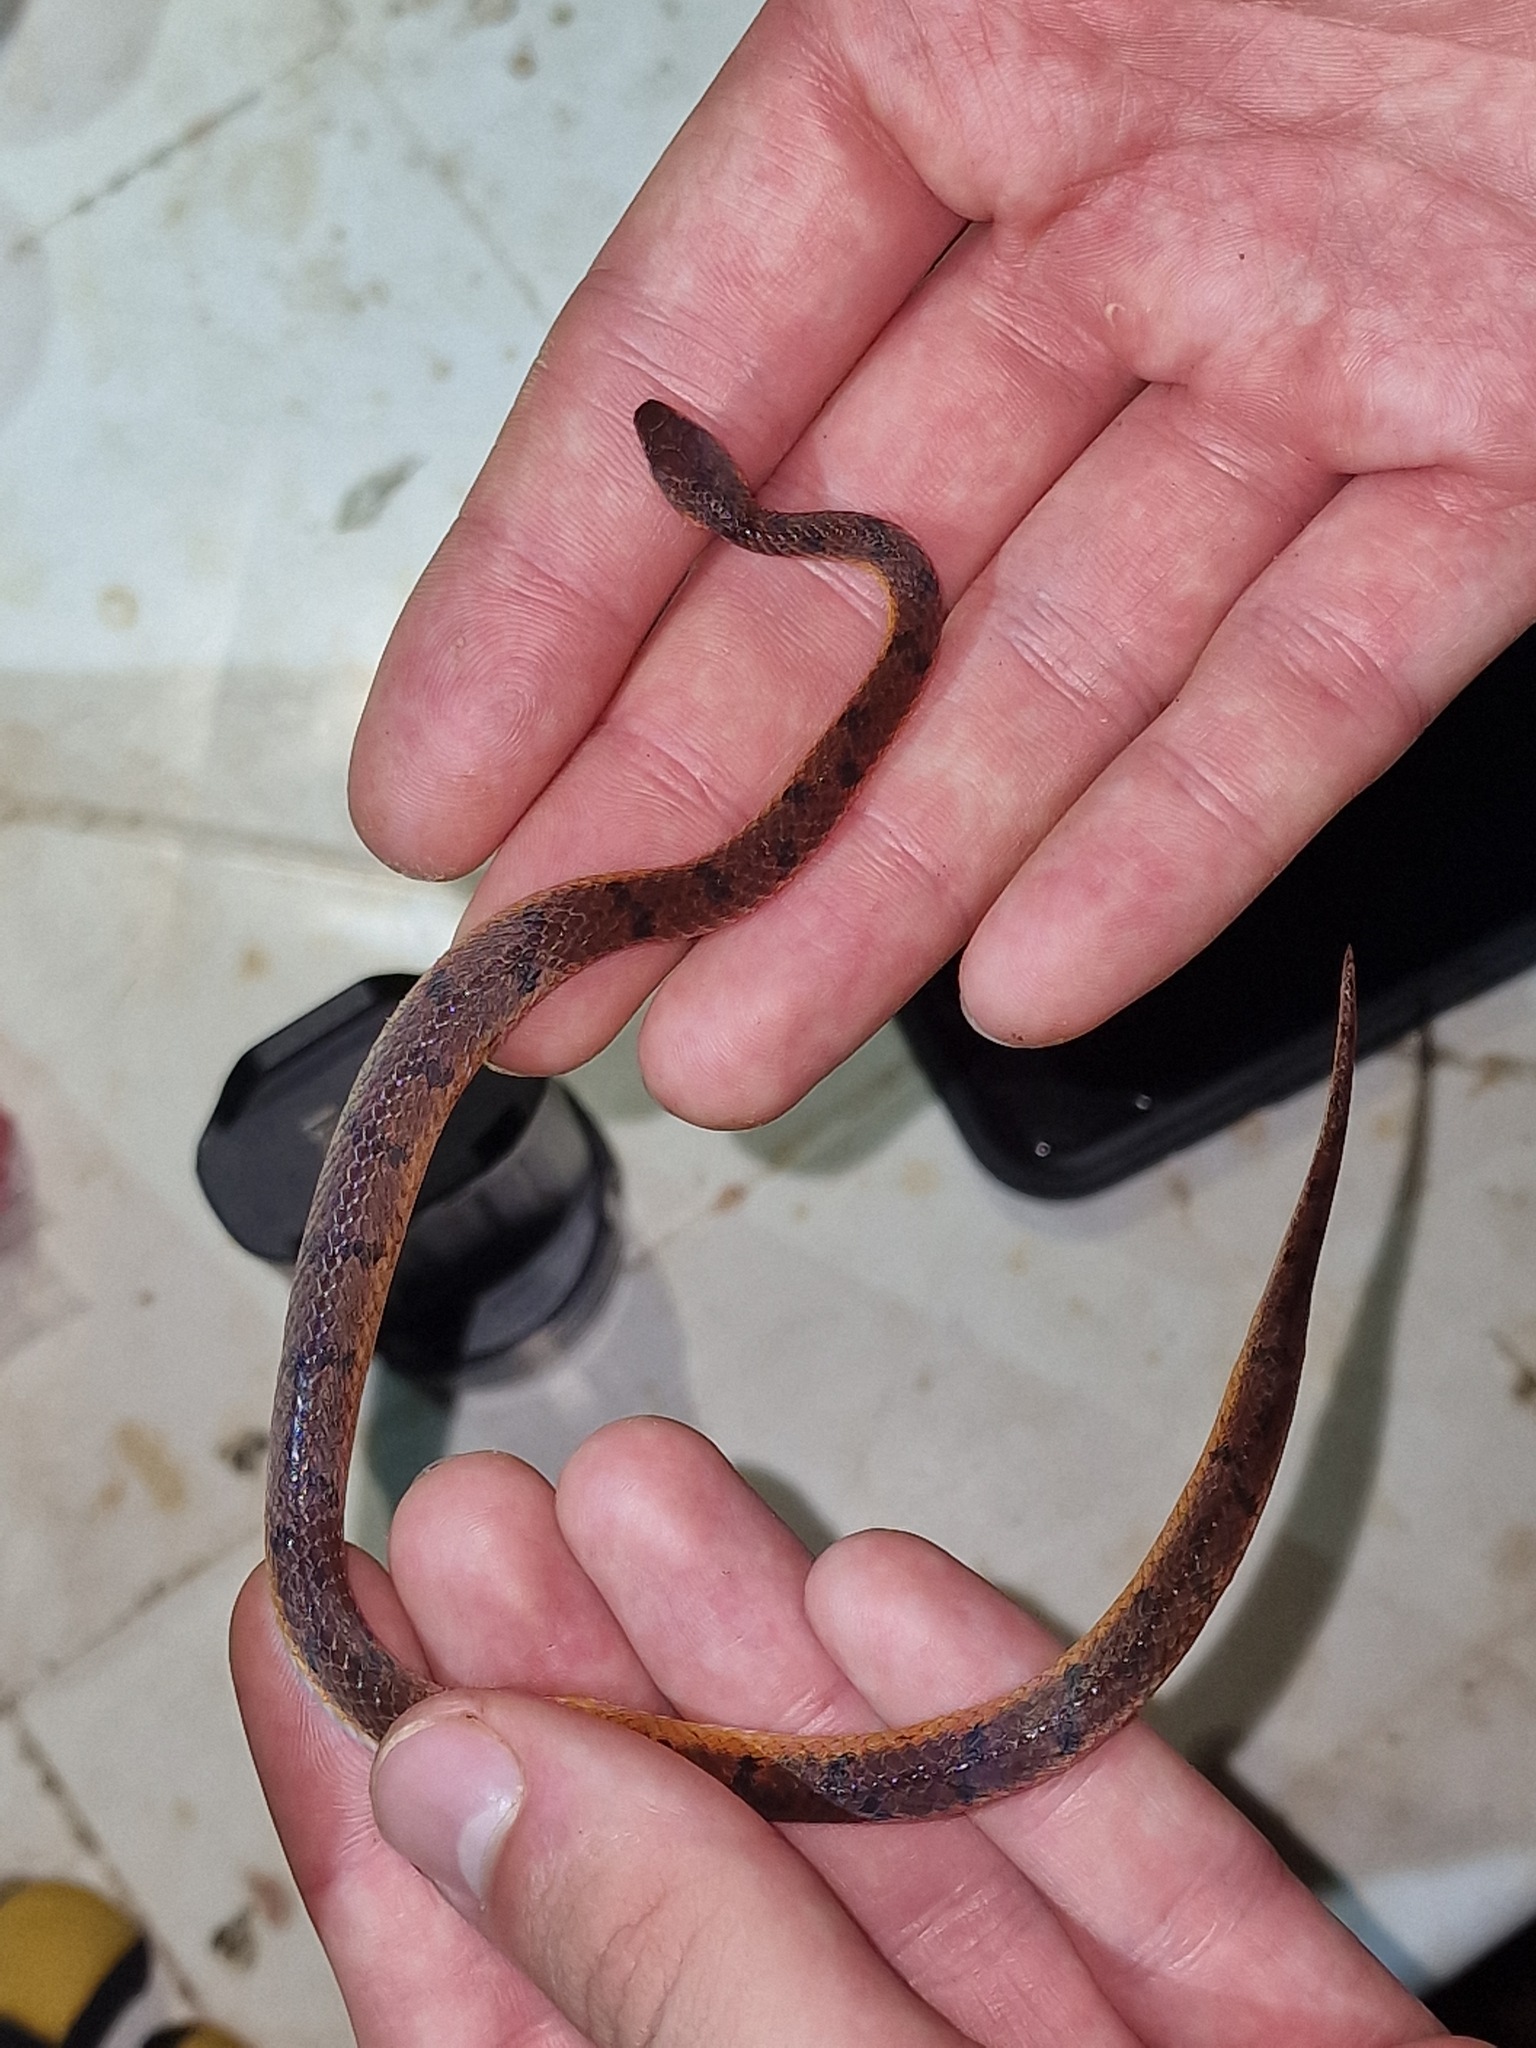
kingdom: Animalia
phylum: Chordata
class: Squamata
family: Colubridae
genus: Xenopholis
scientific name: Xenopholis scalaris
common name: Wucherer's ground snake
